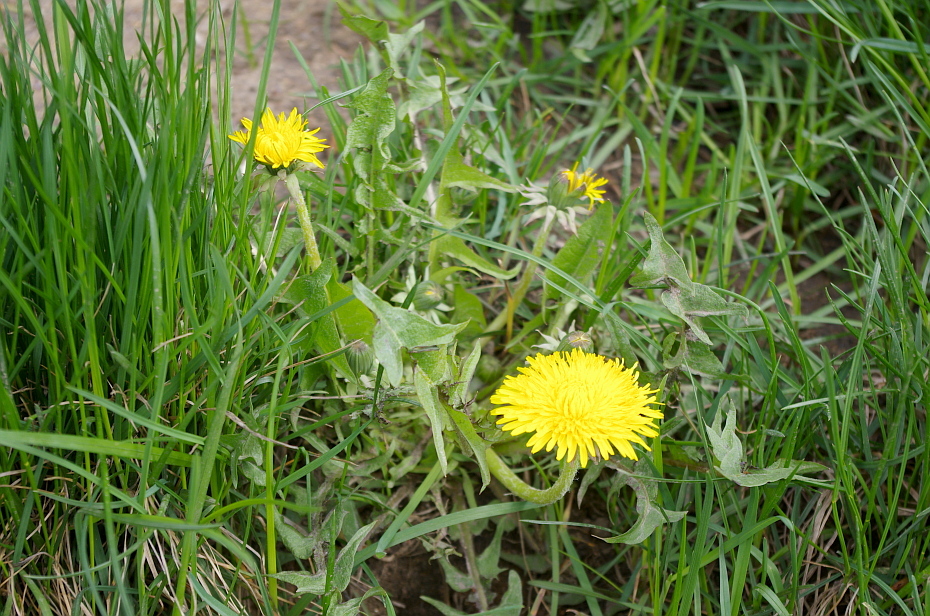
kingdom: Plantae
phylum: Tracheophyta
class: Magnoliopsida
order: Asterales
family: Asteraceae
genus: Taraxacum
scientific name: Taraxacum officinale
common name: Common dandelion
